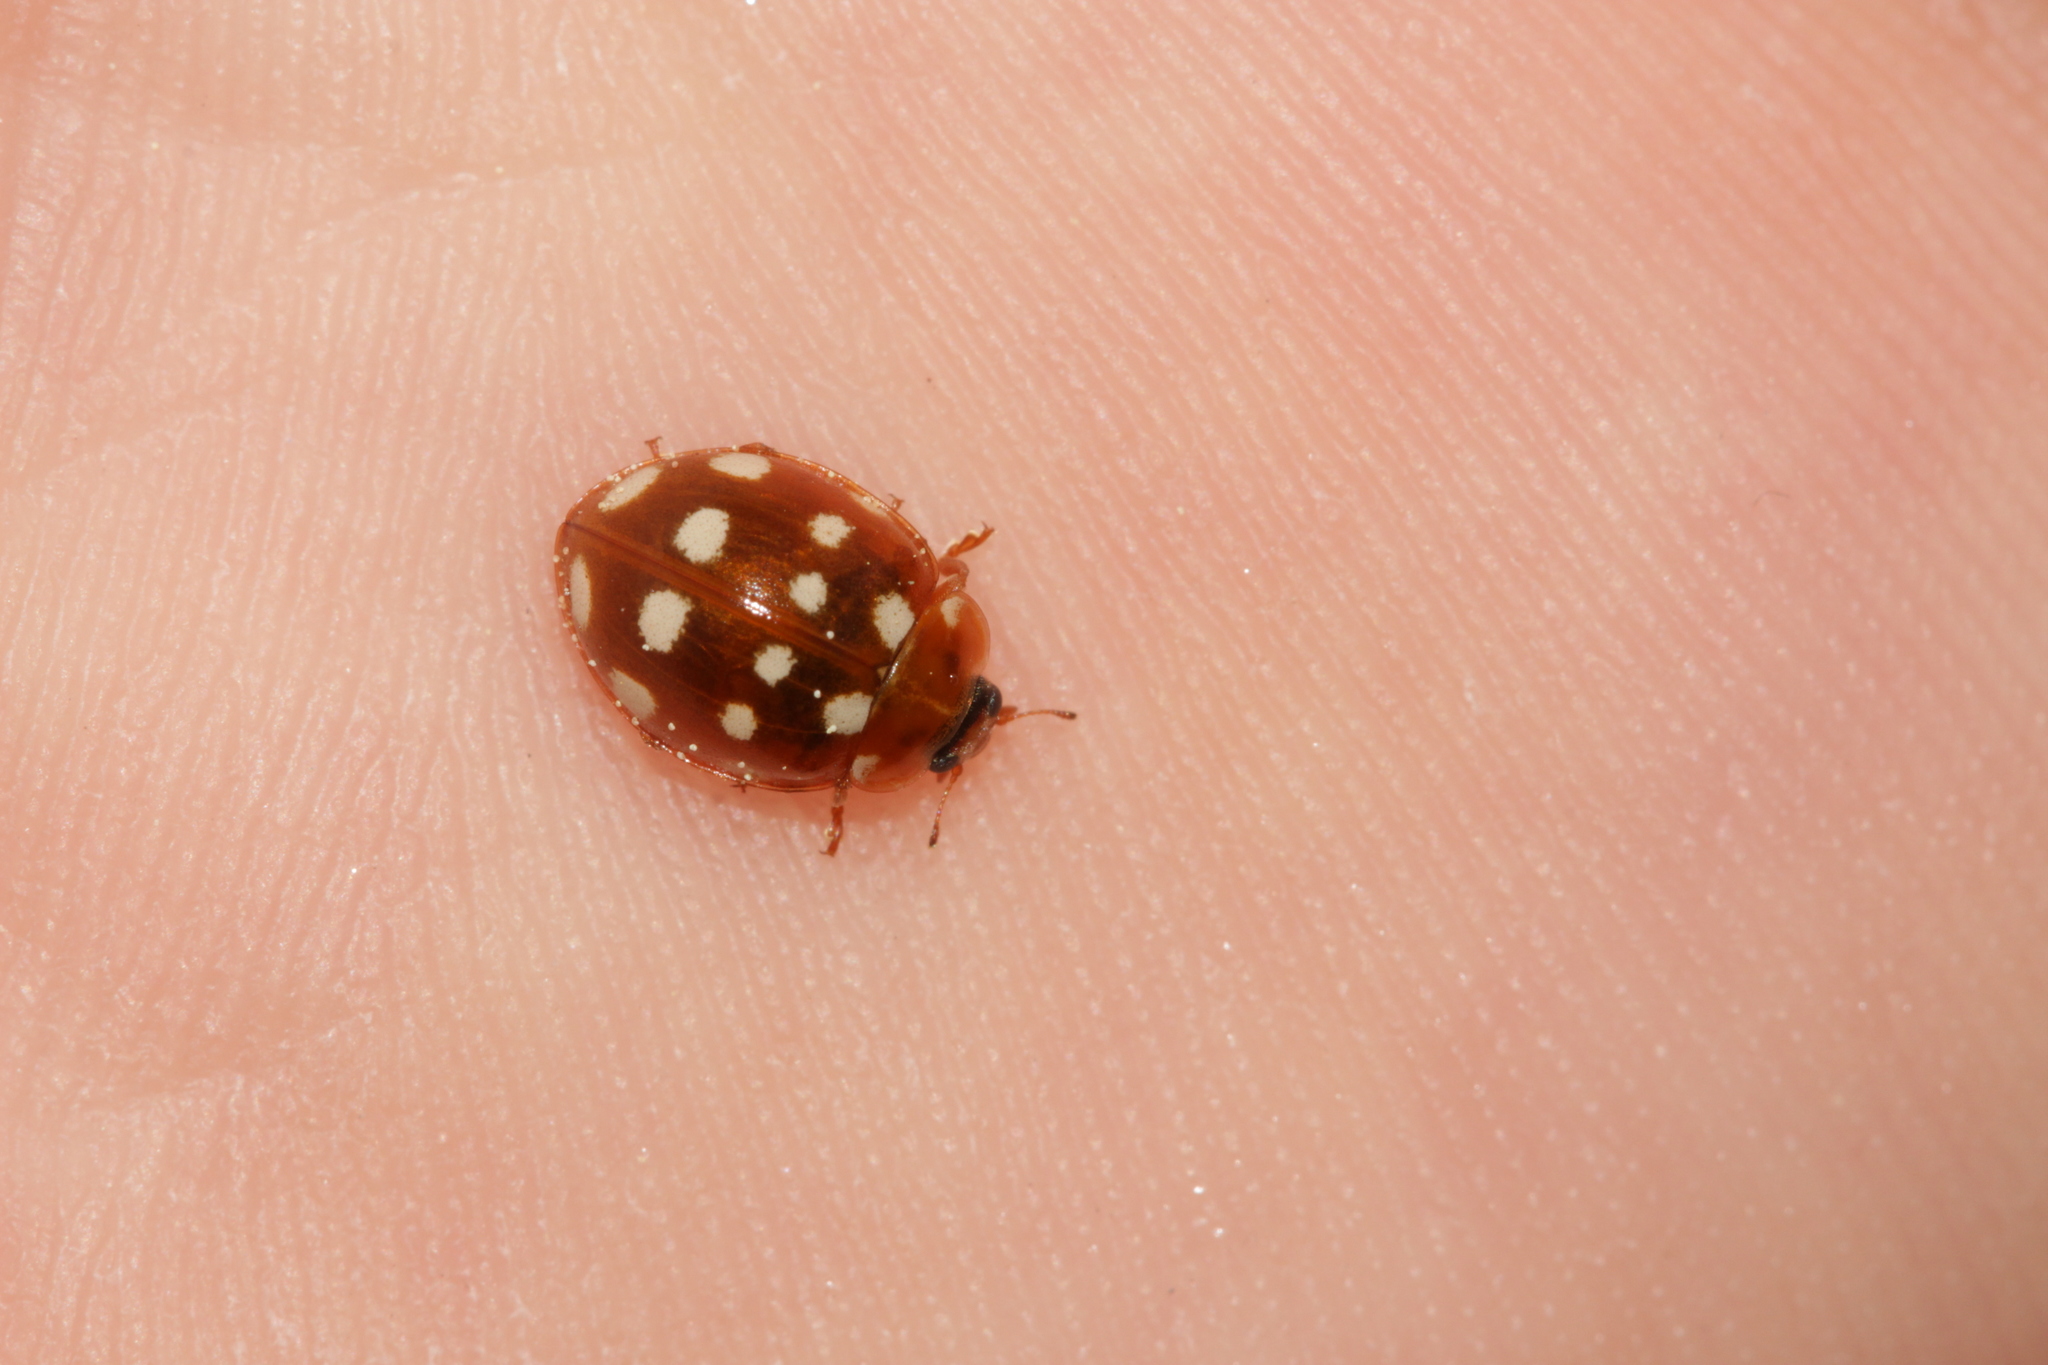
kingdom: Animalia
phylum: Arthropoda
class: Insecta
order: Coleoptera
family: Coccinellidae
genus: Calvia
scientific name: Calvia quatuordecimguttata
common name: Cream-spot ladybird
